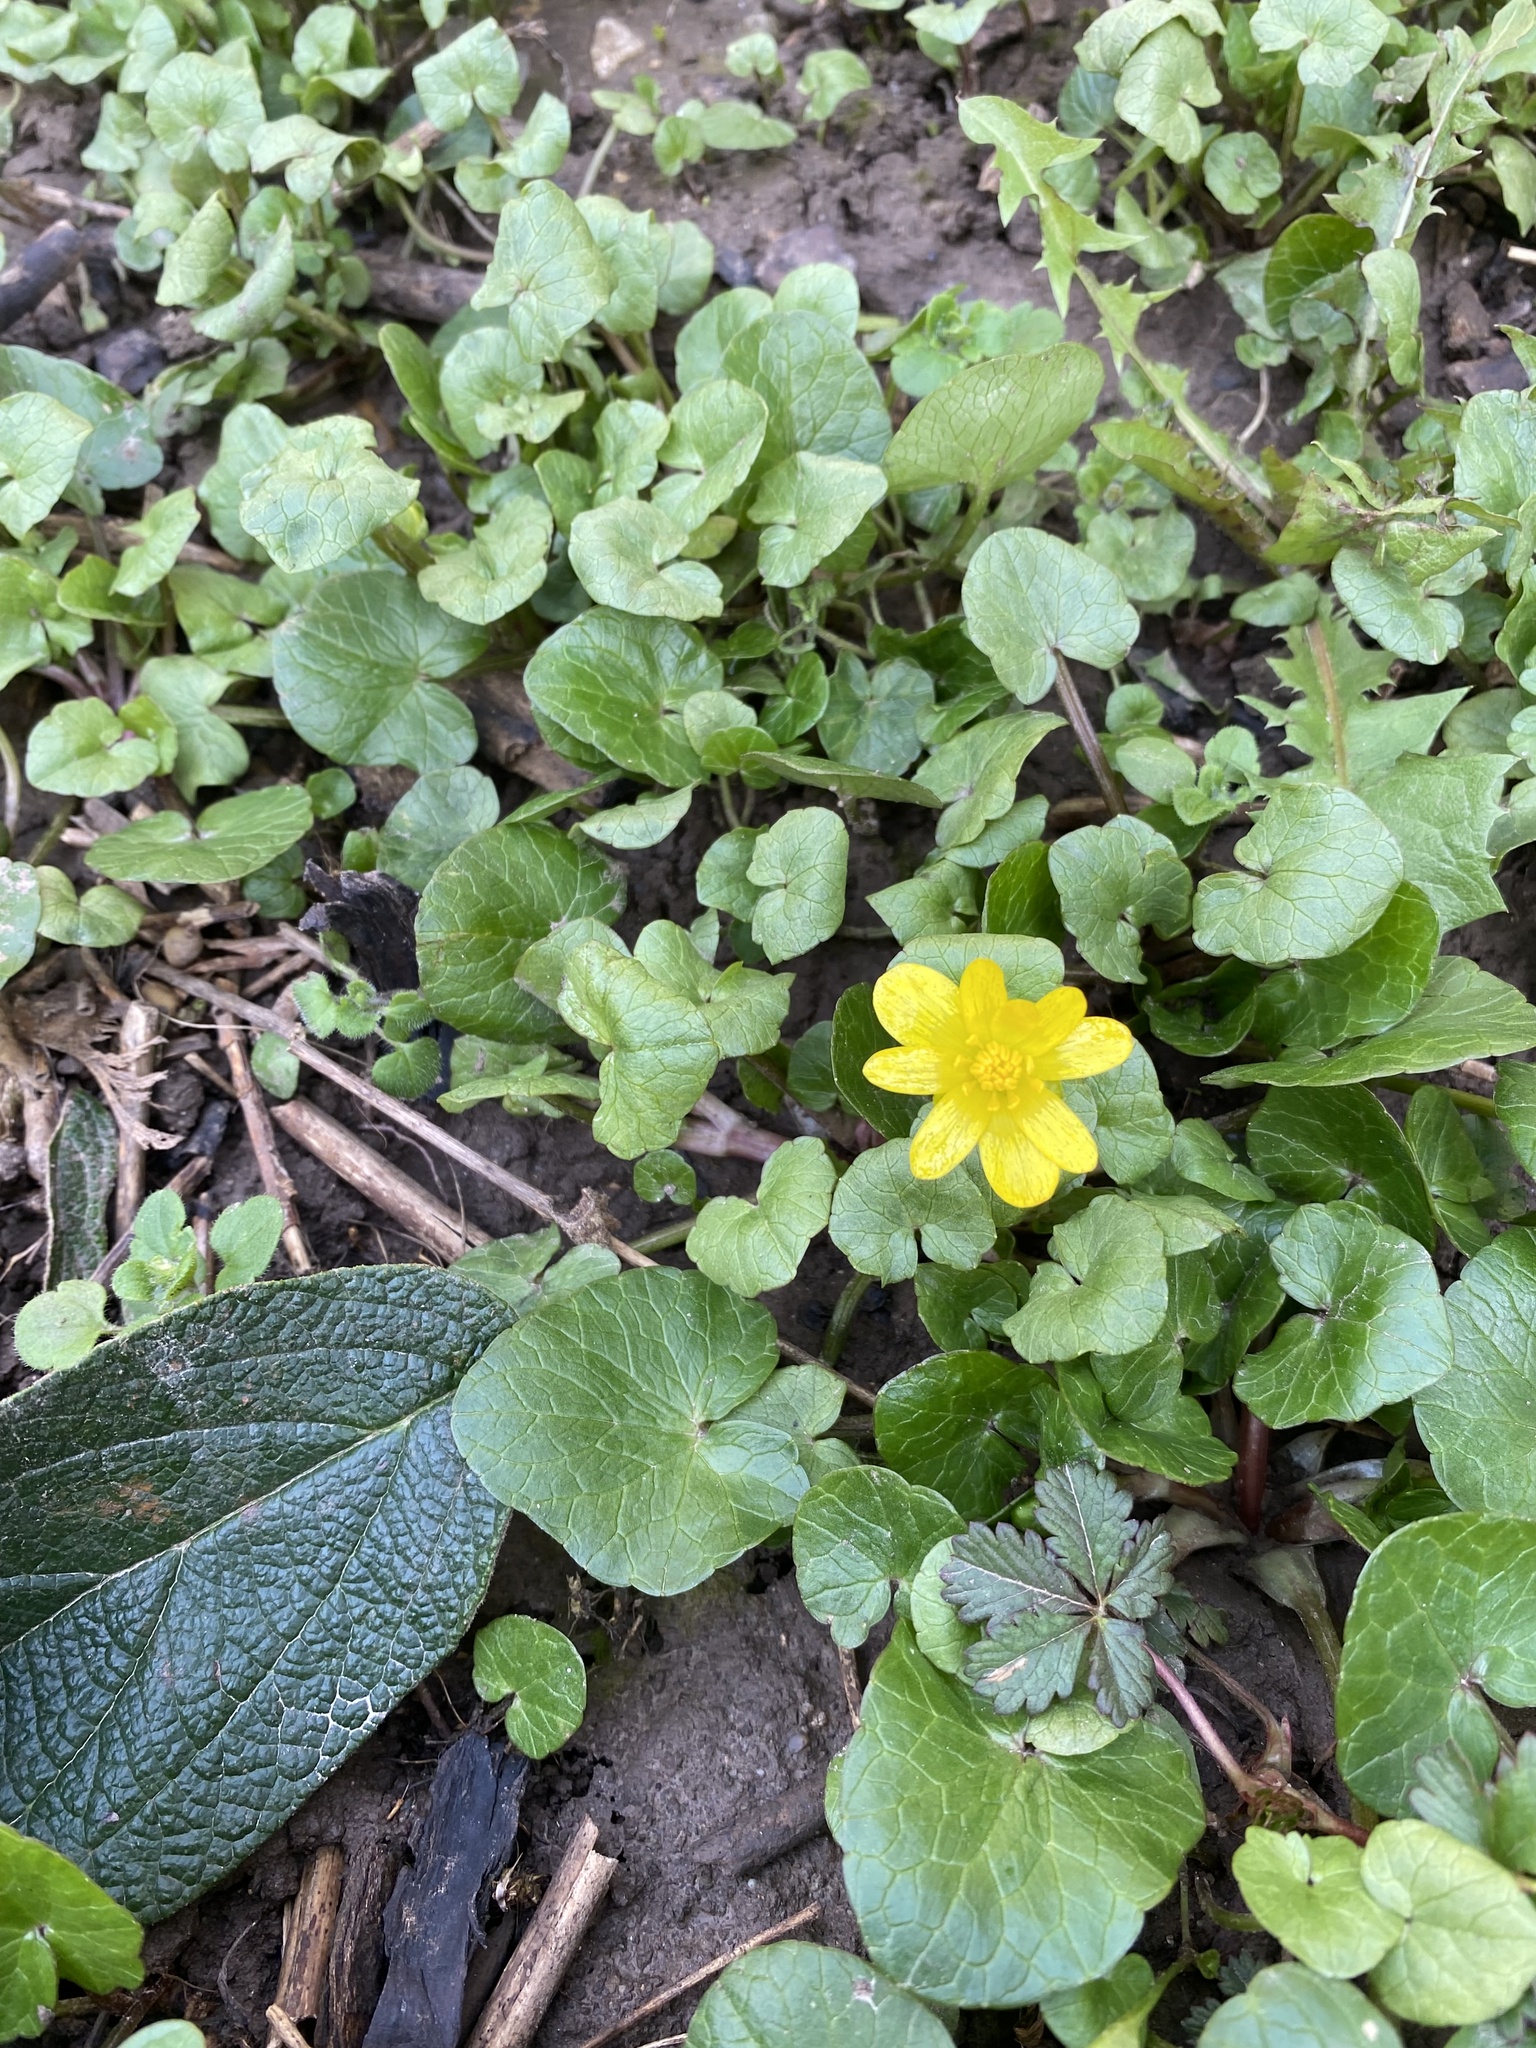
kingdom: Plantae
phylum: Tracheophyta
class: Magnoliopsida
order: Ranunculales
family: Ranunculaceae
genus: Ficaria
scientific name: Ficaria verna
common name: Lesser celandine
